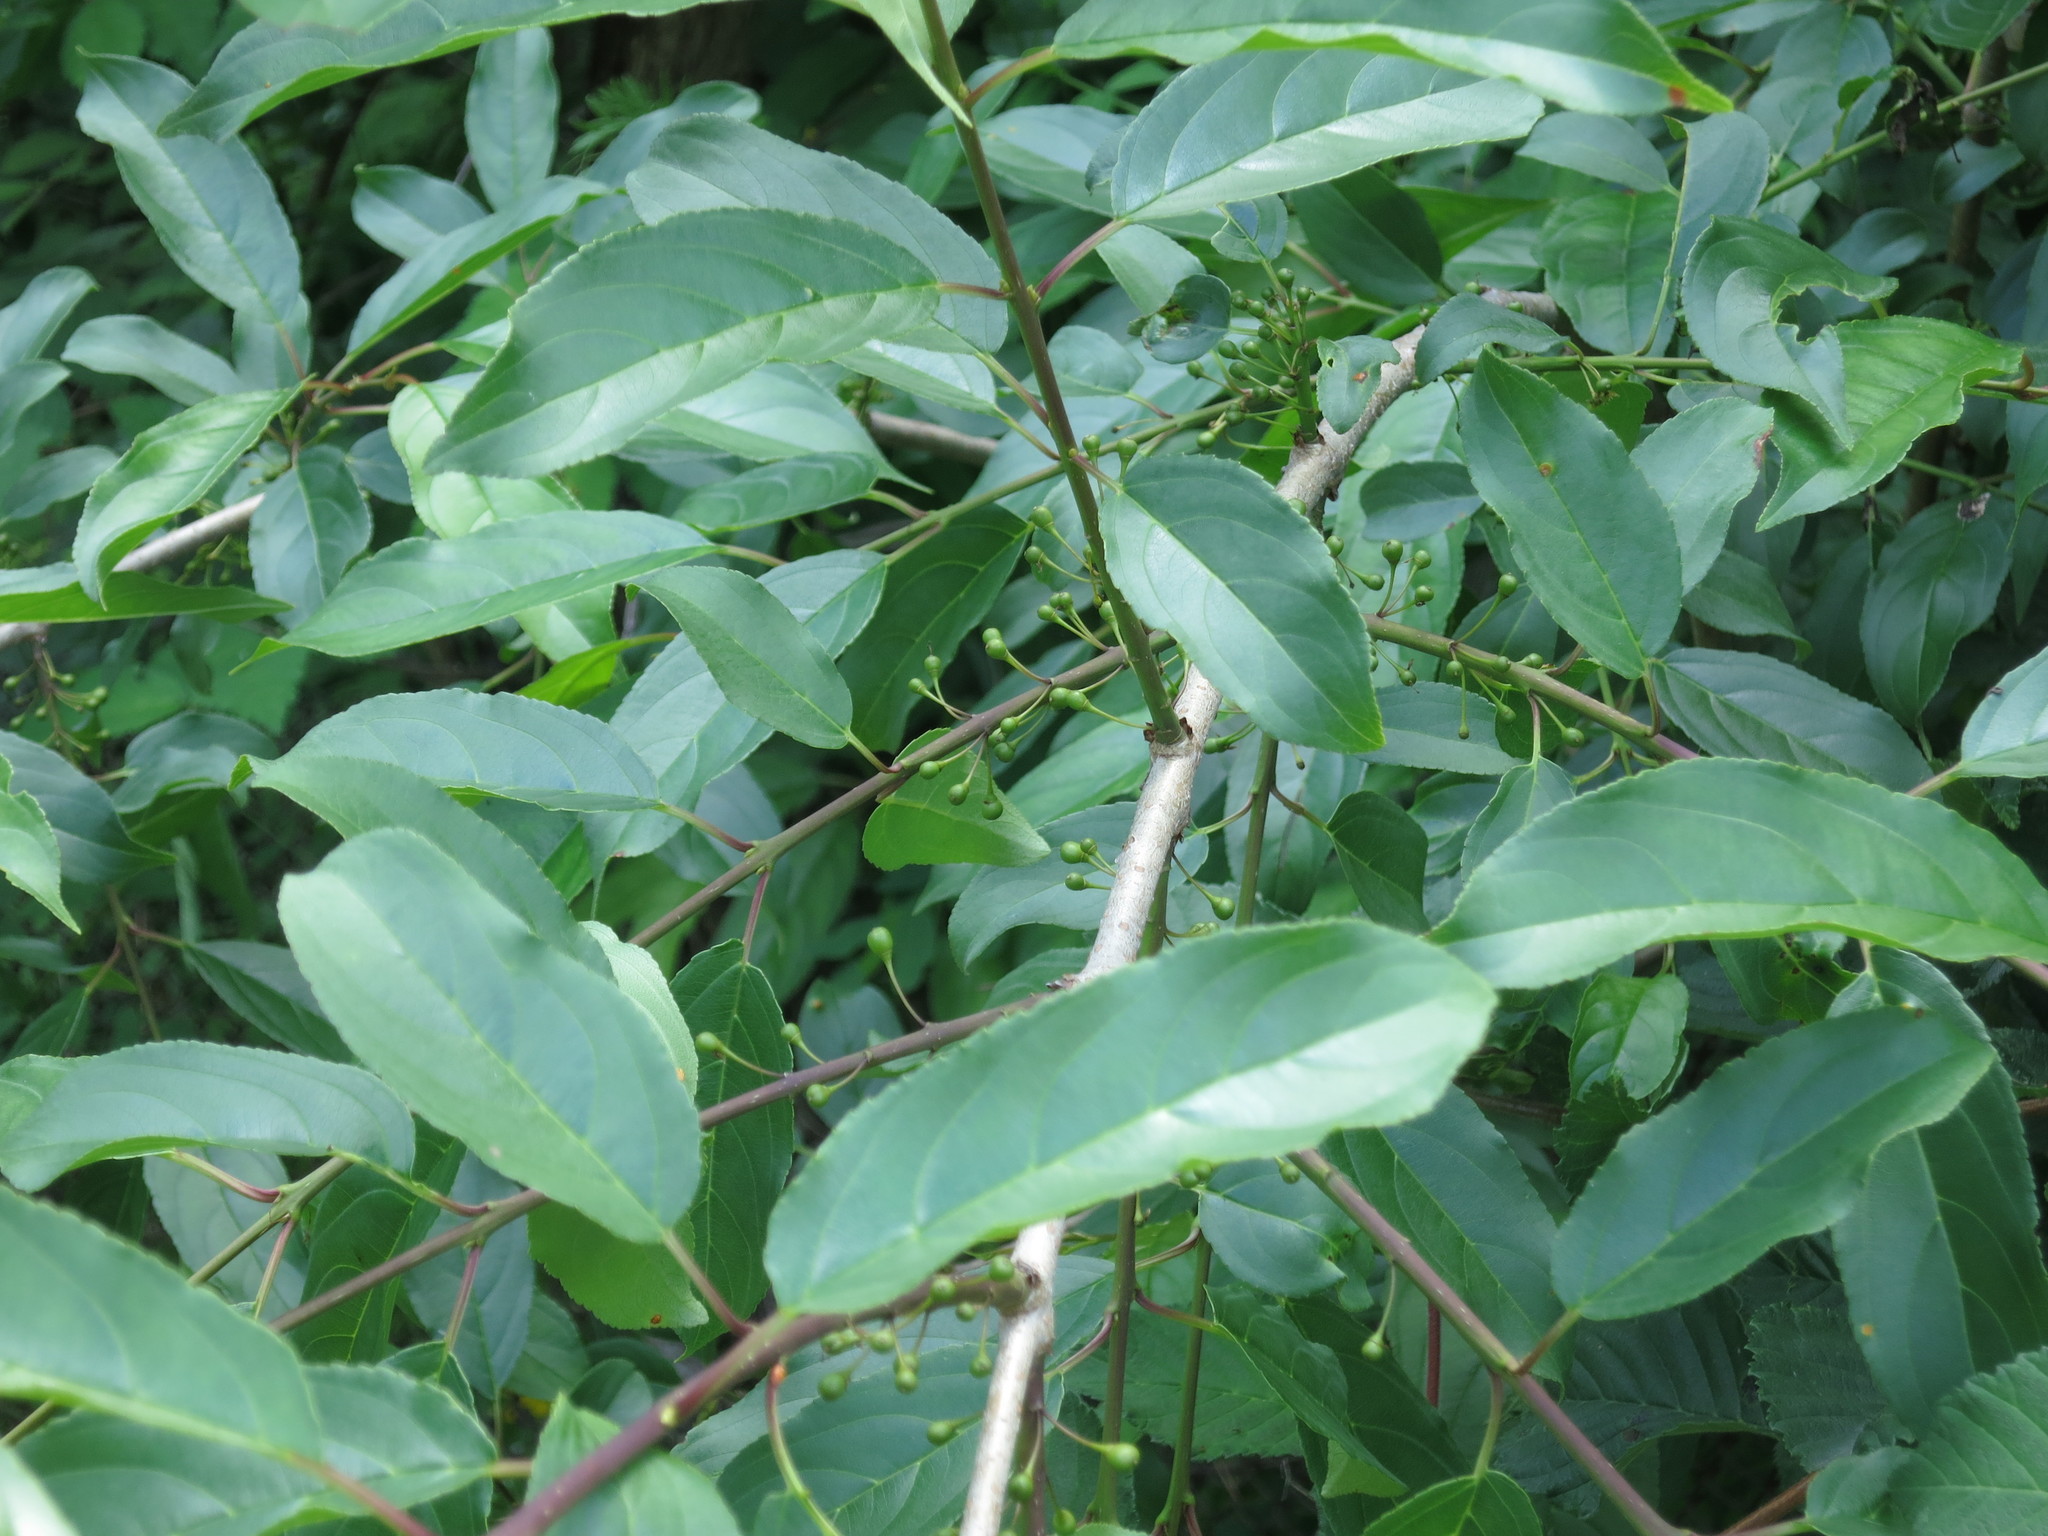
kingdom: Plantae
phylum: Tracheophyta
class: Magnoliopsida
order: Rosales
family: Rhamnaceae
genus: Rhamnus
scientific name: Rhamnus ussuriensis
